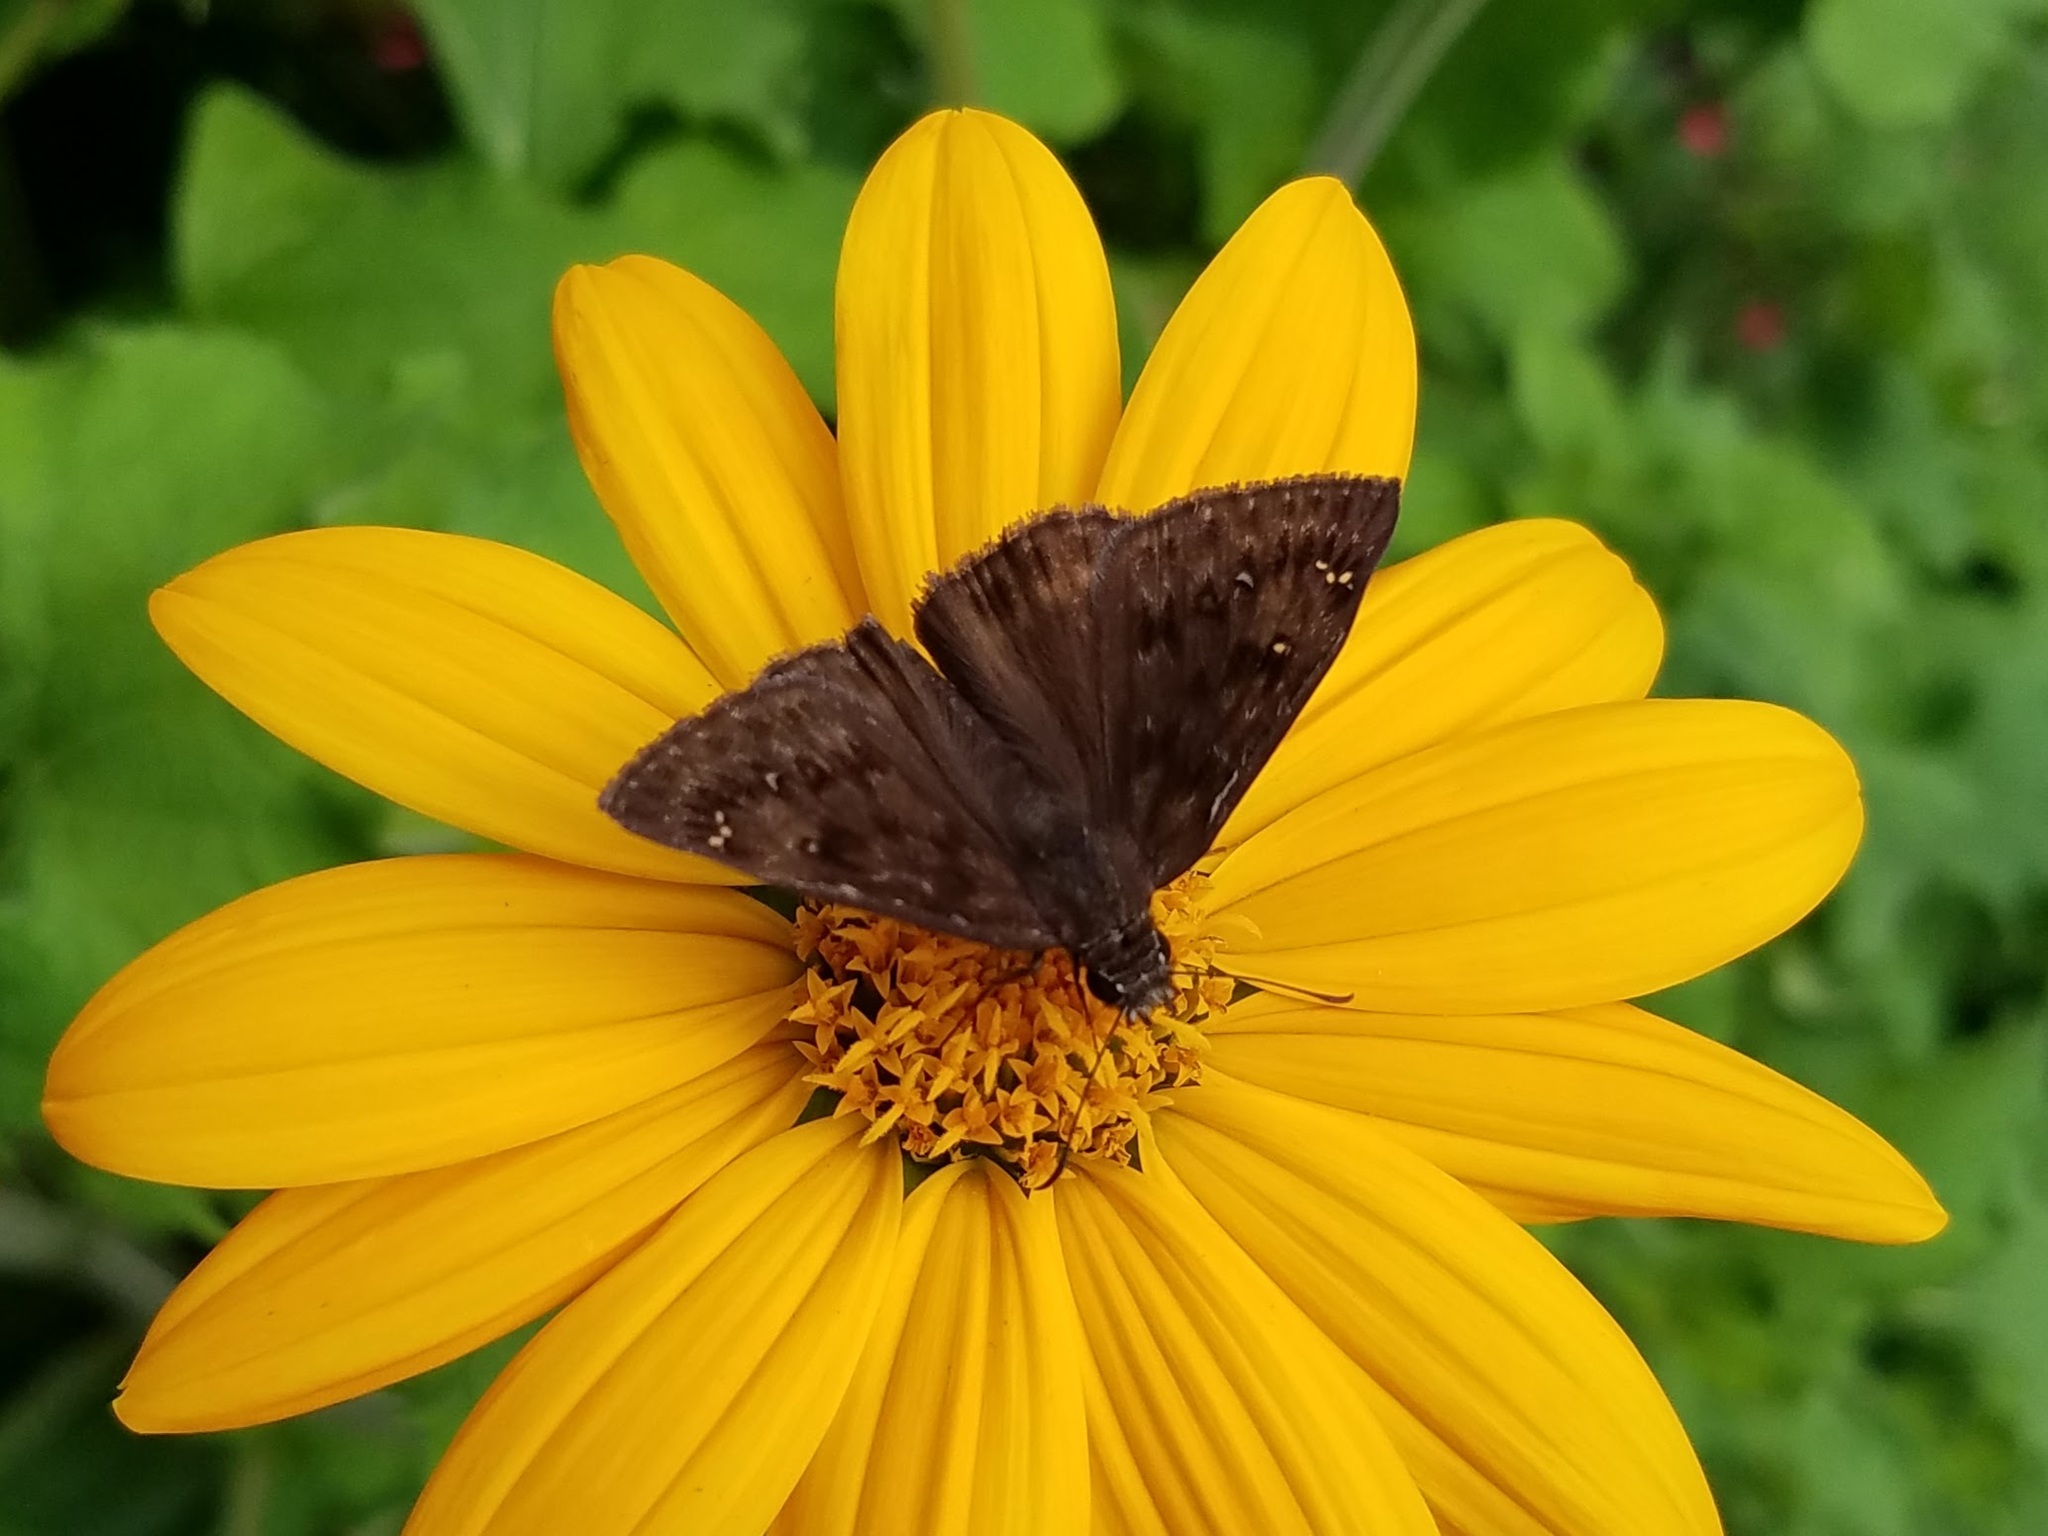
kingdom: Animalia
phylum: Arthropoda
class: Insecta
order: Lepidoptera
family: Hesperiidae
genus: Erynnis
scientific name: Erynnis horatius
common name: Horace's duskywing
